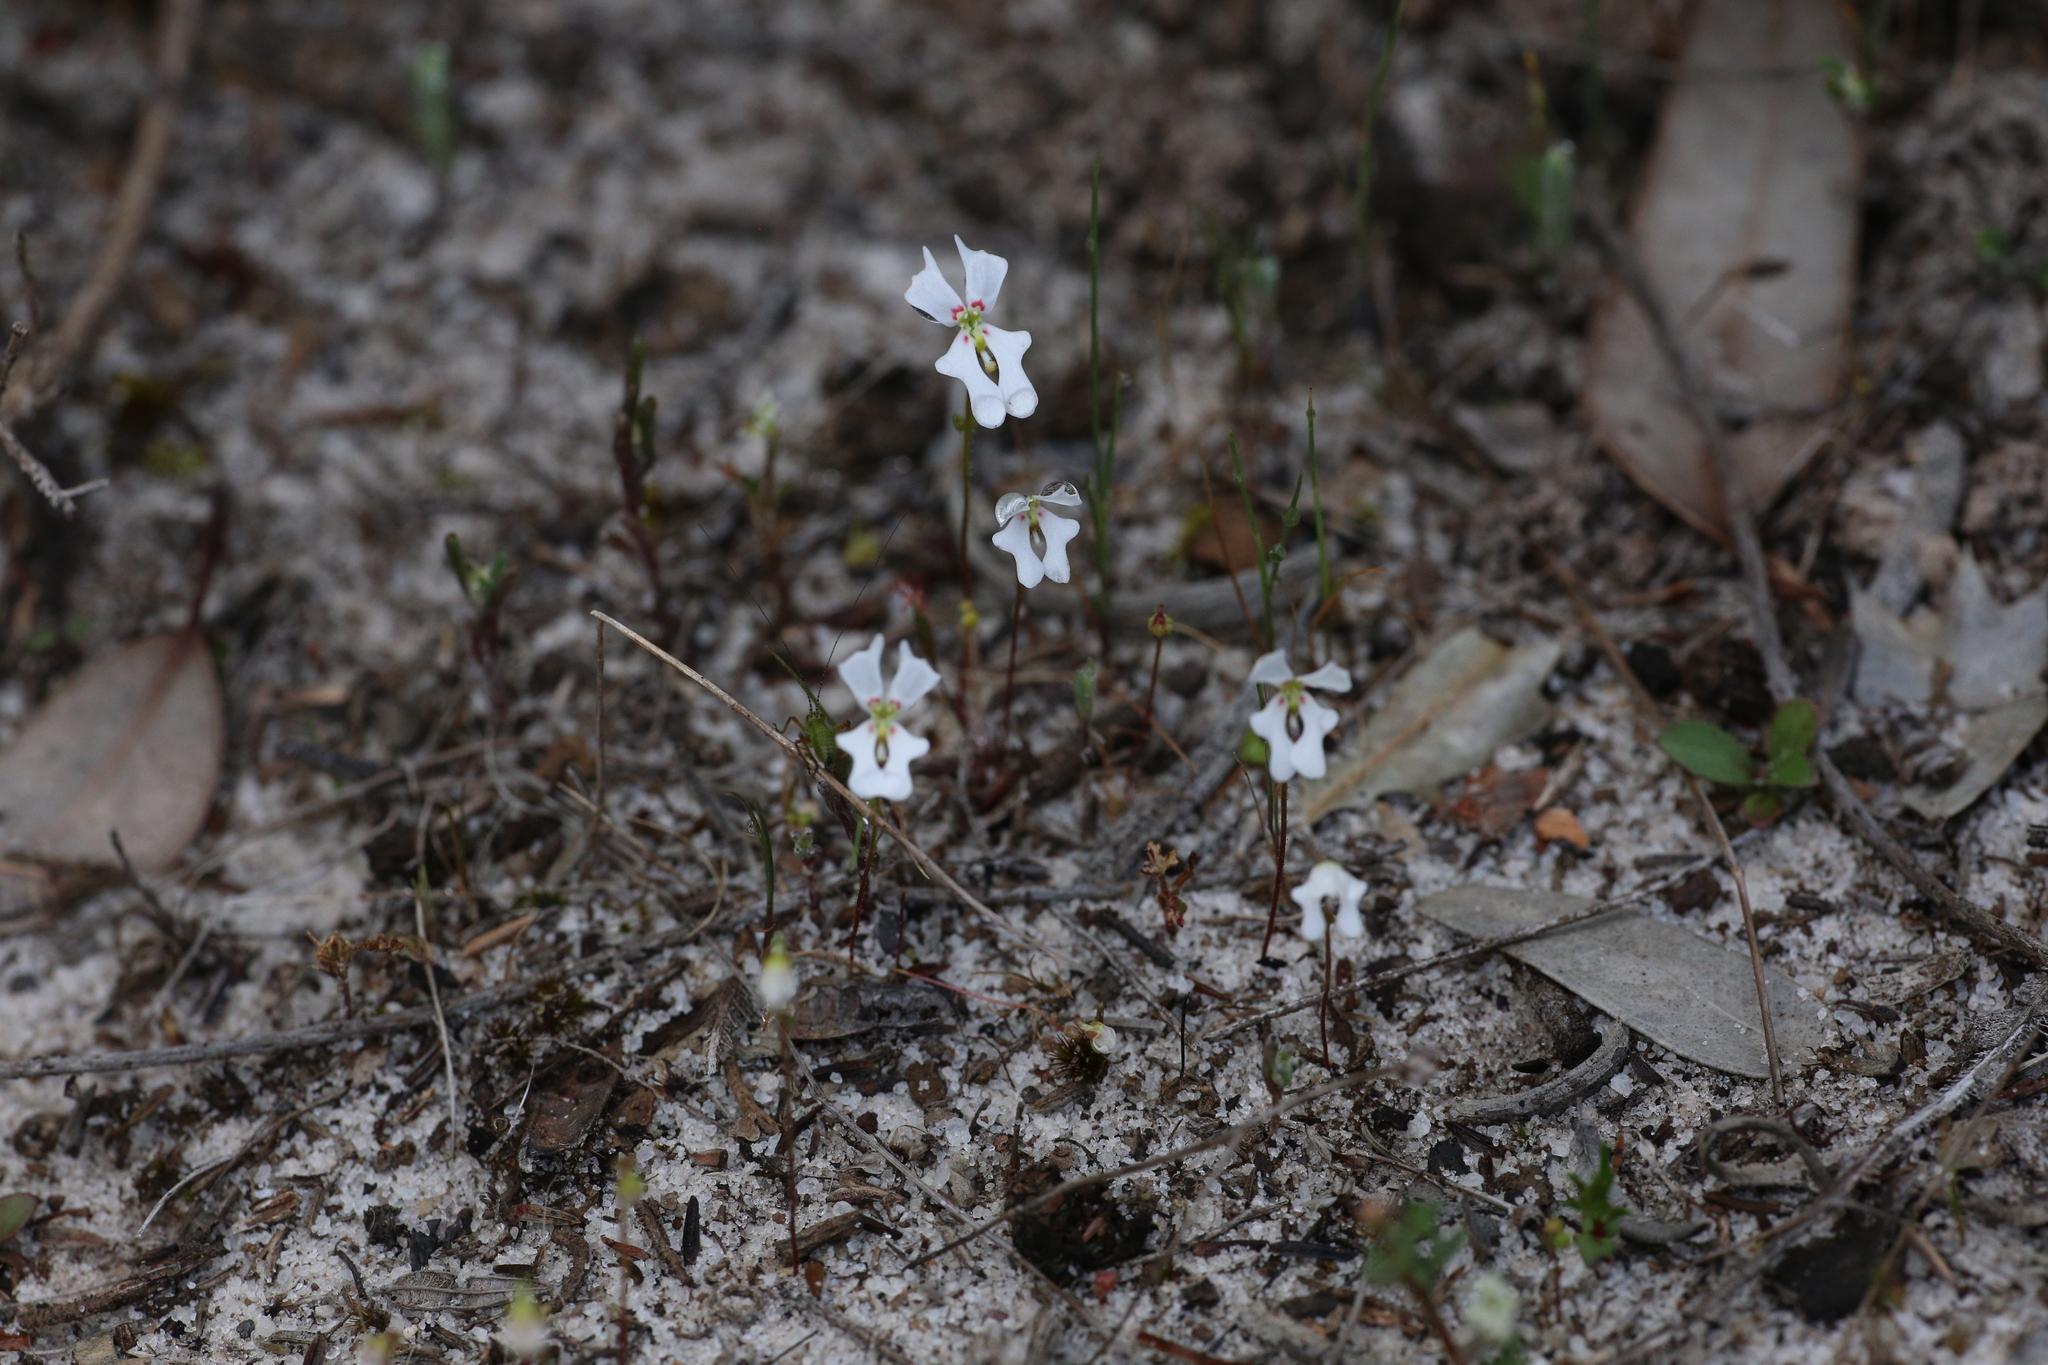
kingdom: Plantae
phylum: Tracheophyta
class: Magnoliopsida
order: Asterales
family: Stylidiaceae
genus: Stylidium
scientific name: Stylidium androsaceum
